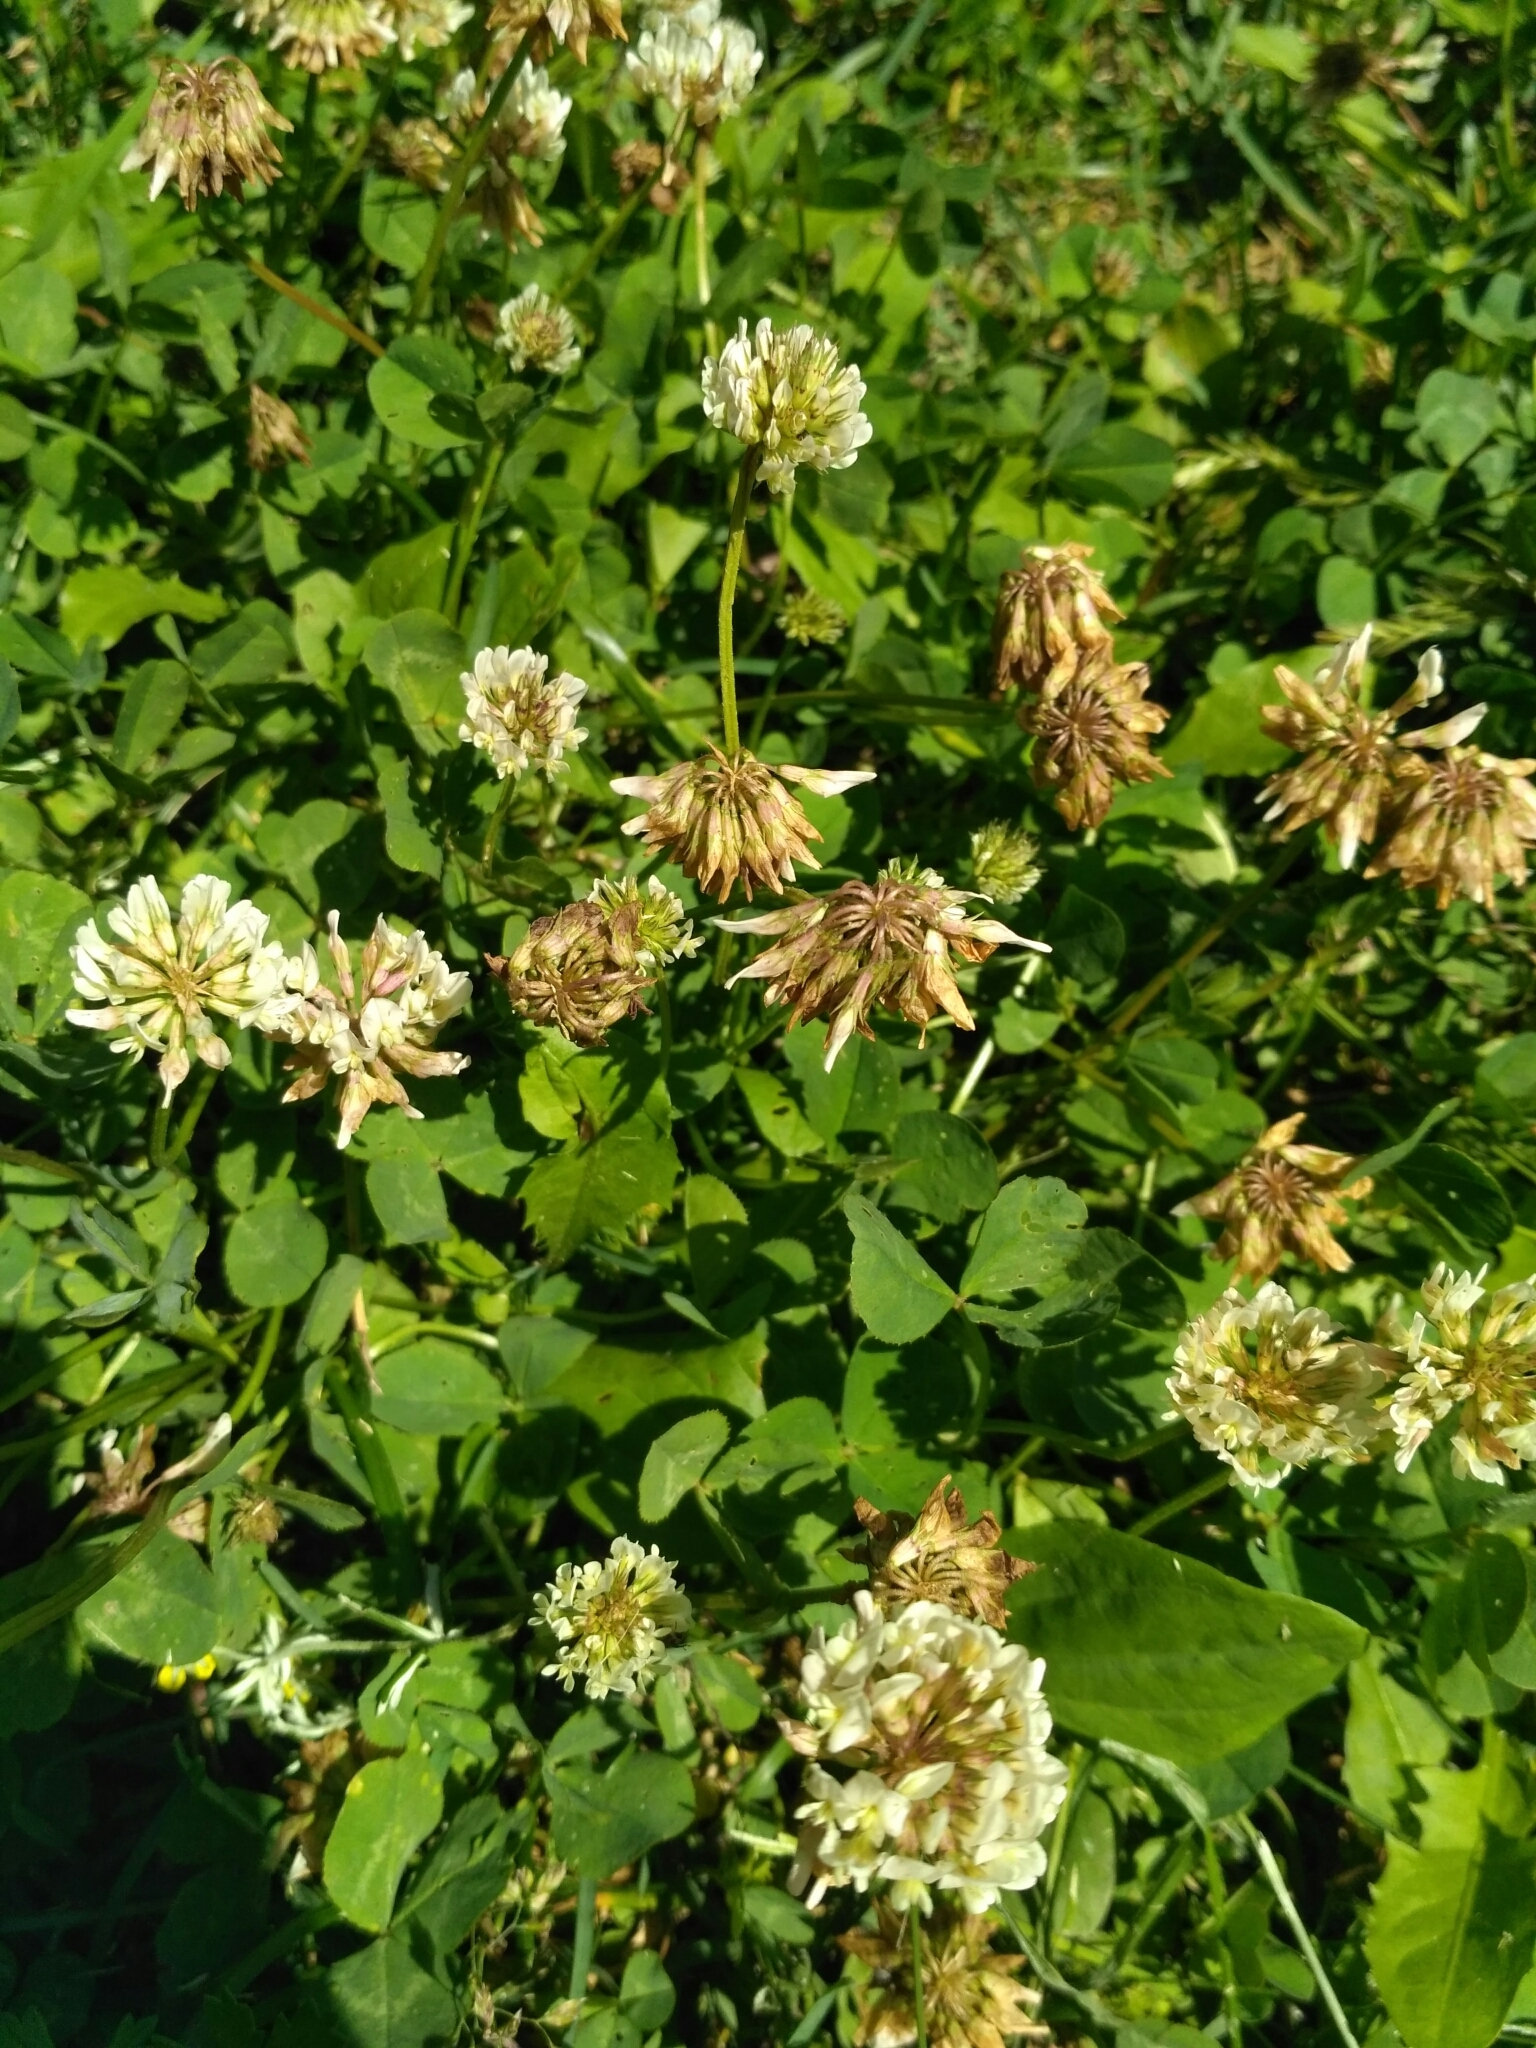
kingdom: Plantae
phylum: Tracheophyta
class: Magnoliopsida
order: Fabales
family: Fabaceae
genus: Trifolium
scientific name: Trifolium repens
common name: White clover
